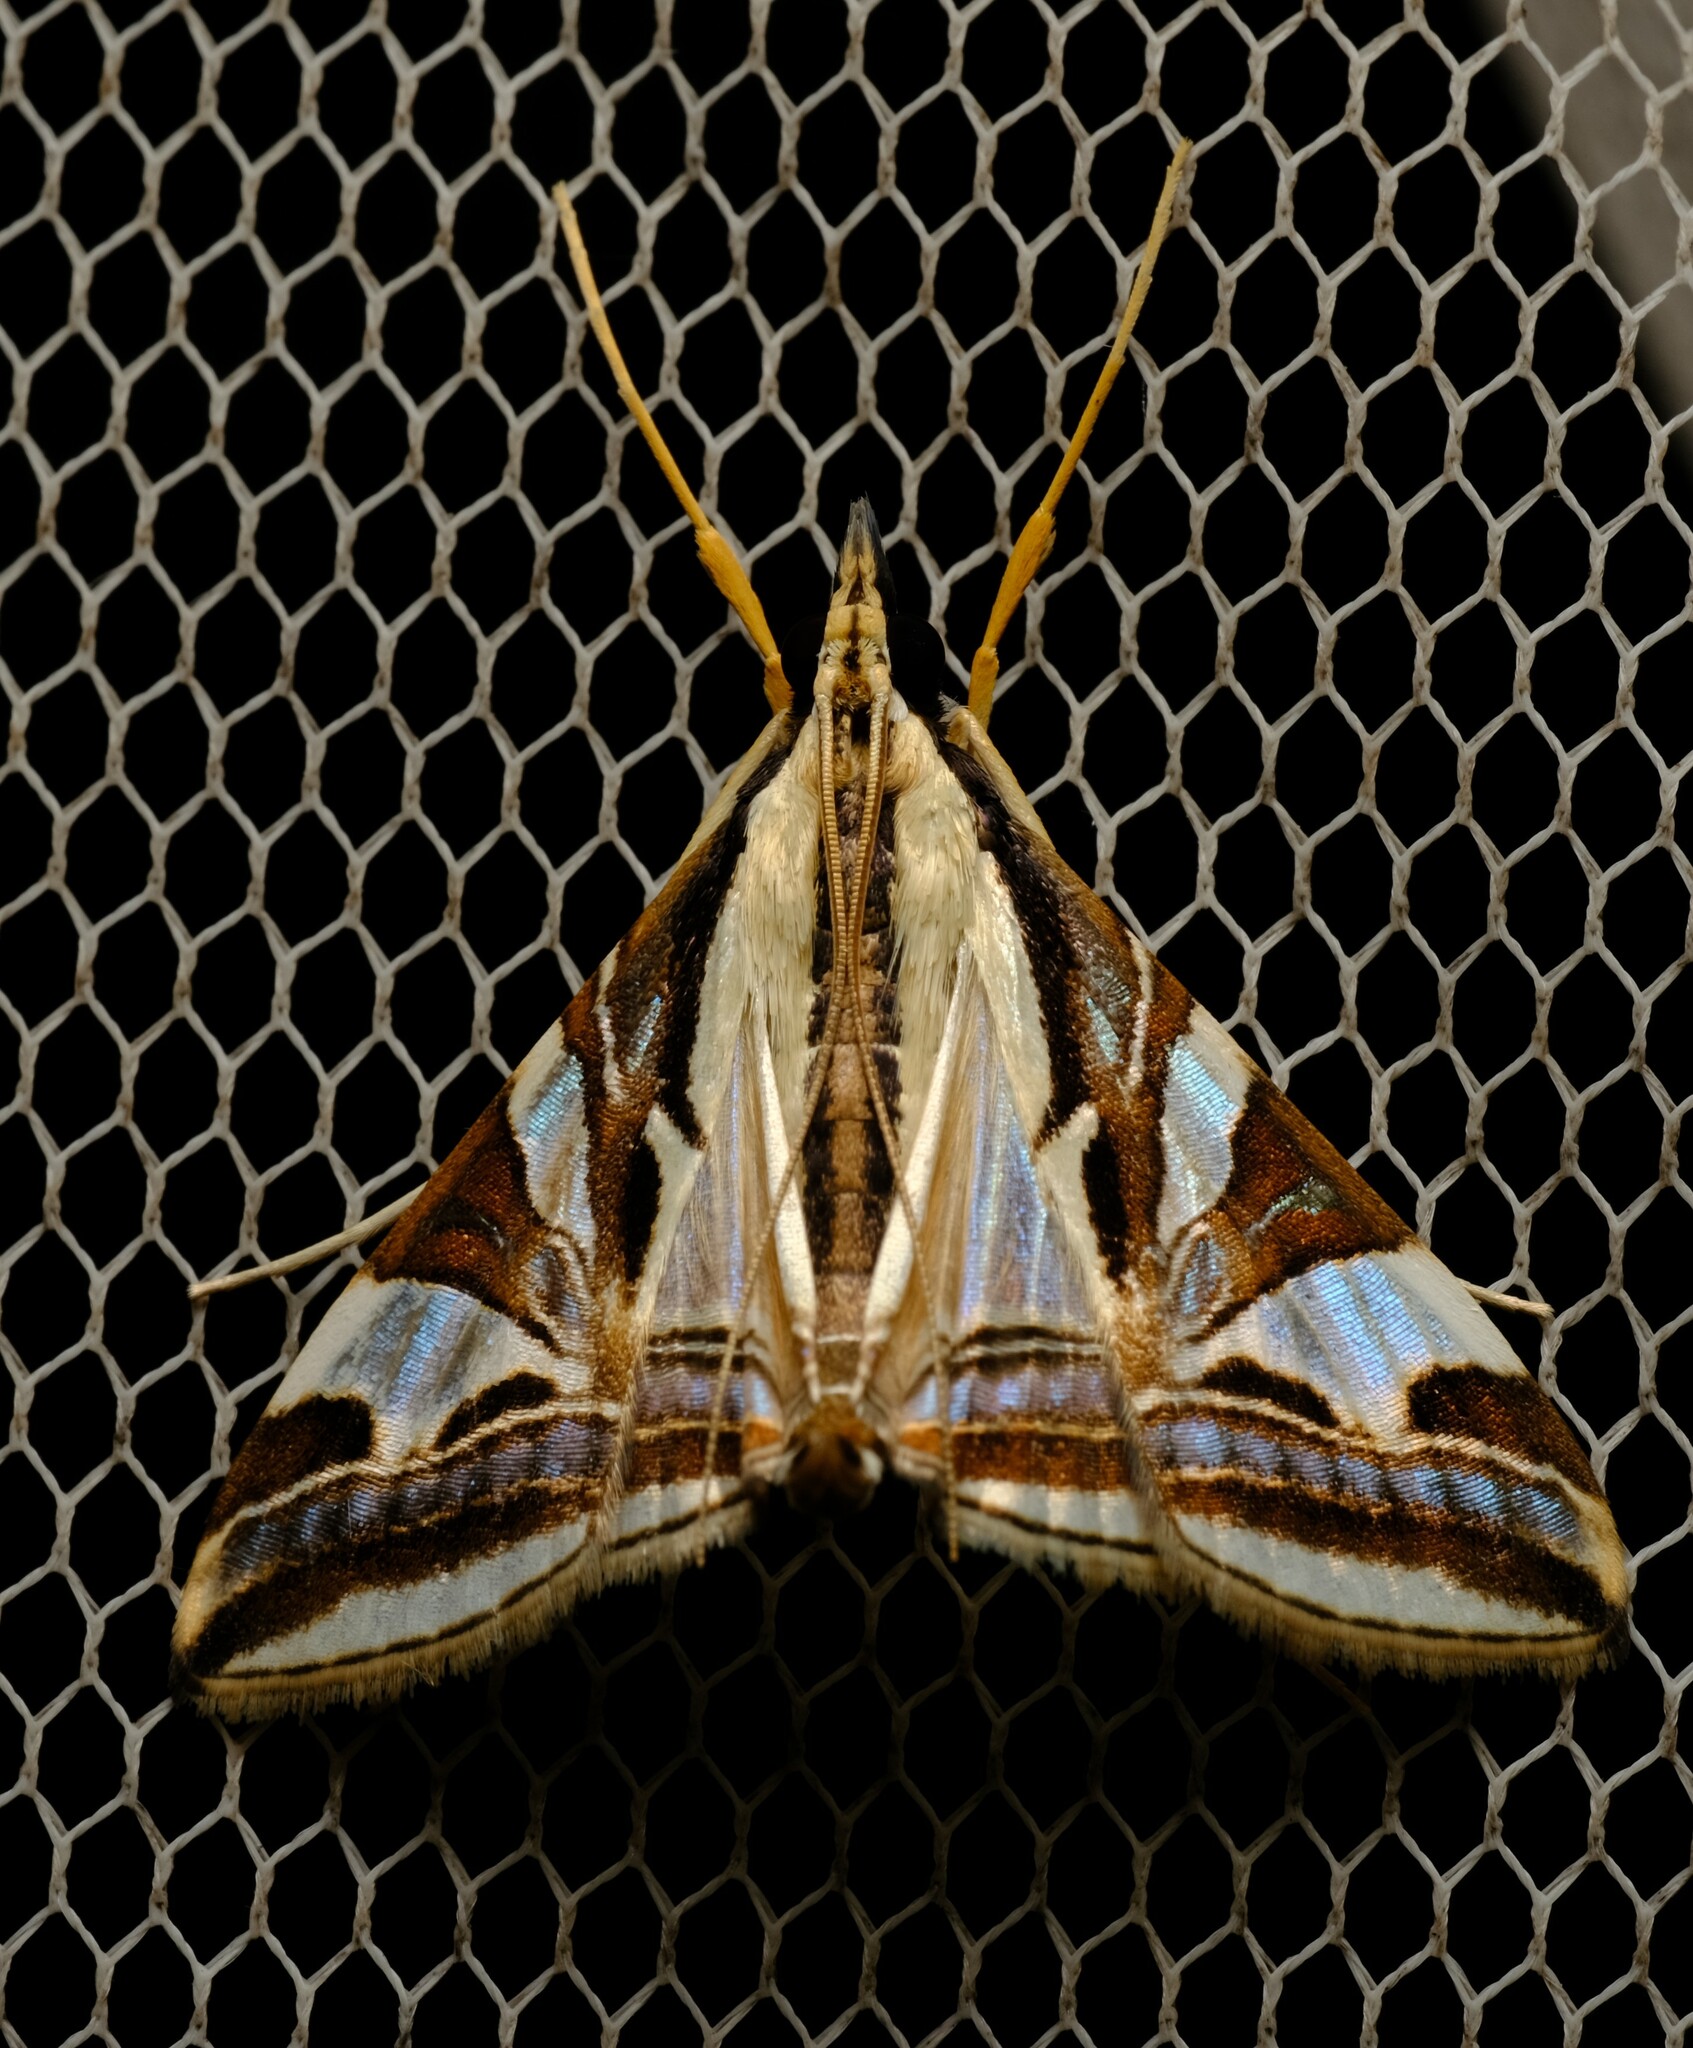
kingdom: Animalia
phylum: Arthropoda
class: Insecta
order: Lepidoptera
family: Crambidae
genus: Agrioglypta
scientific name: Agrioglypta excelsalis
